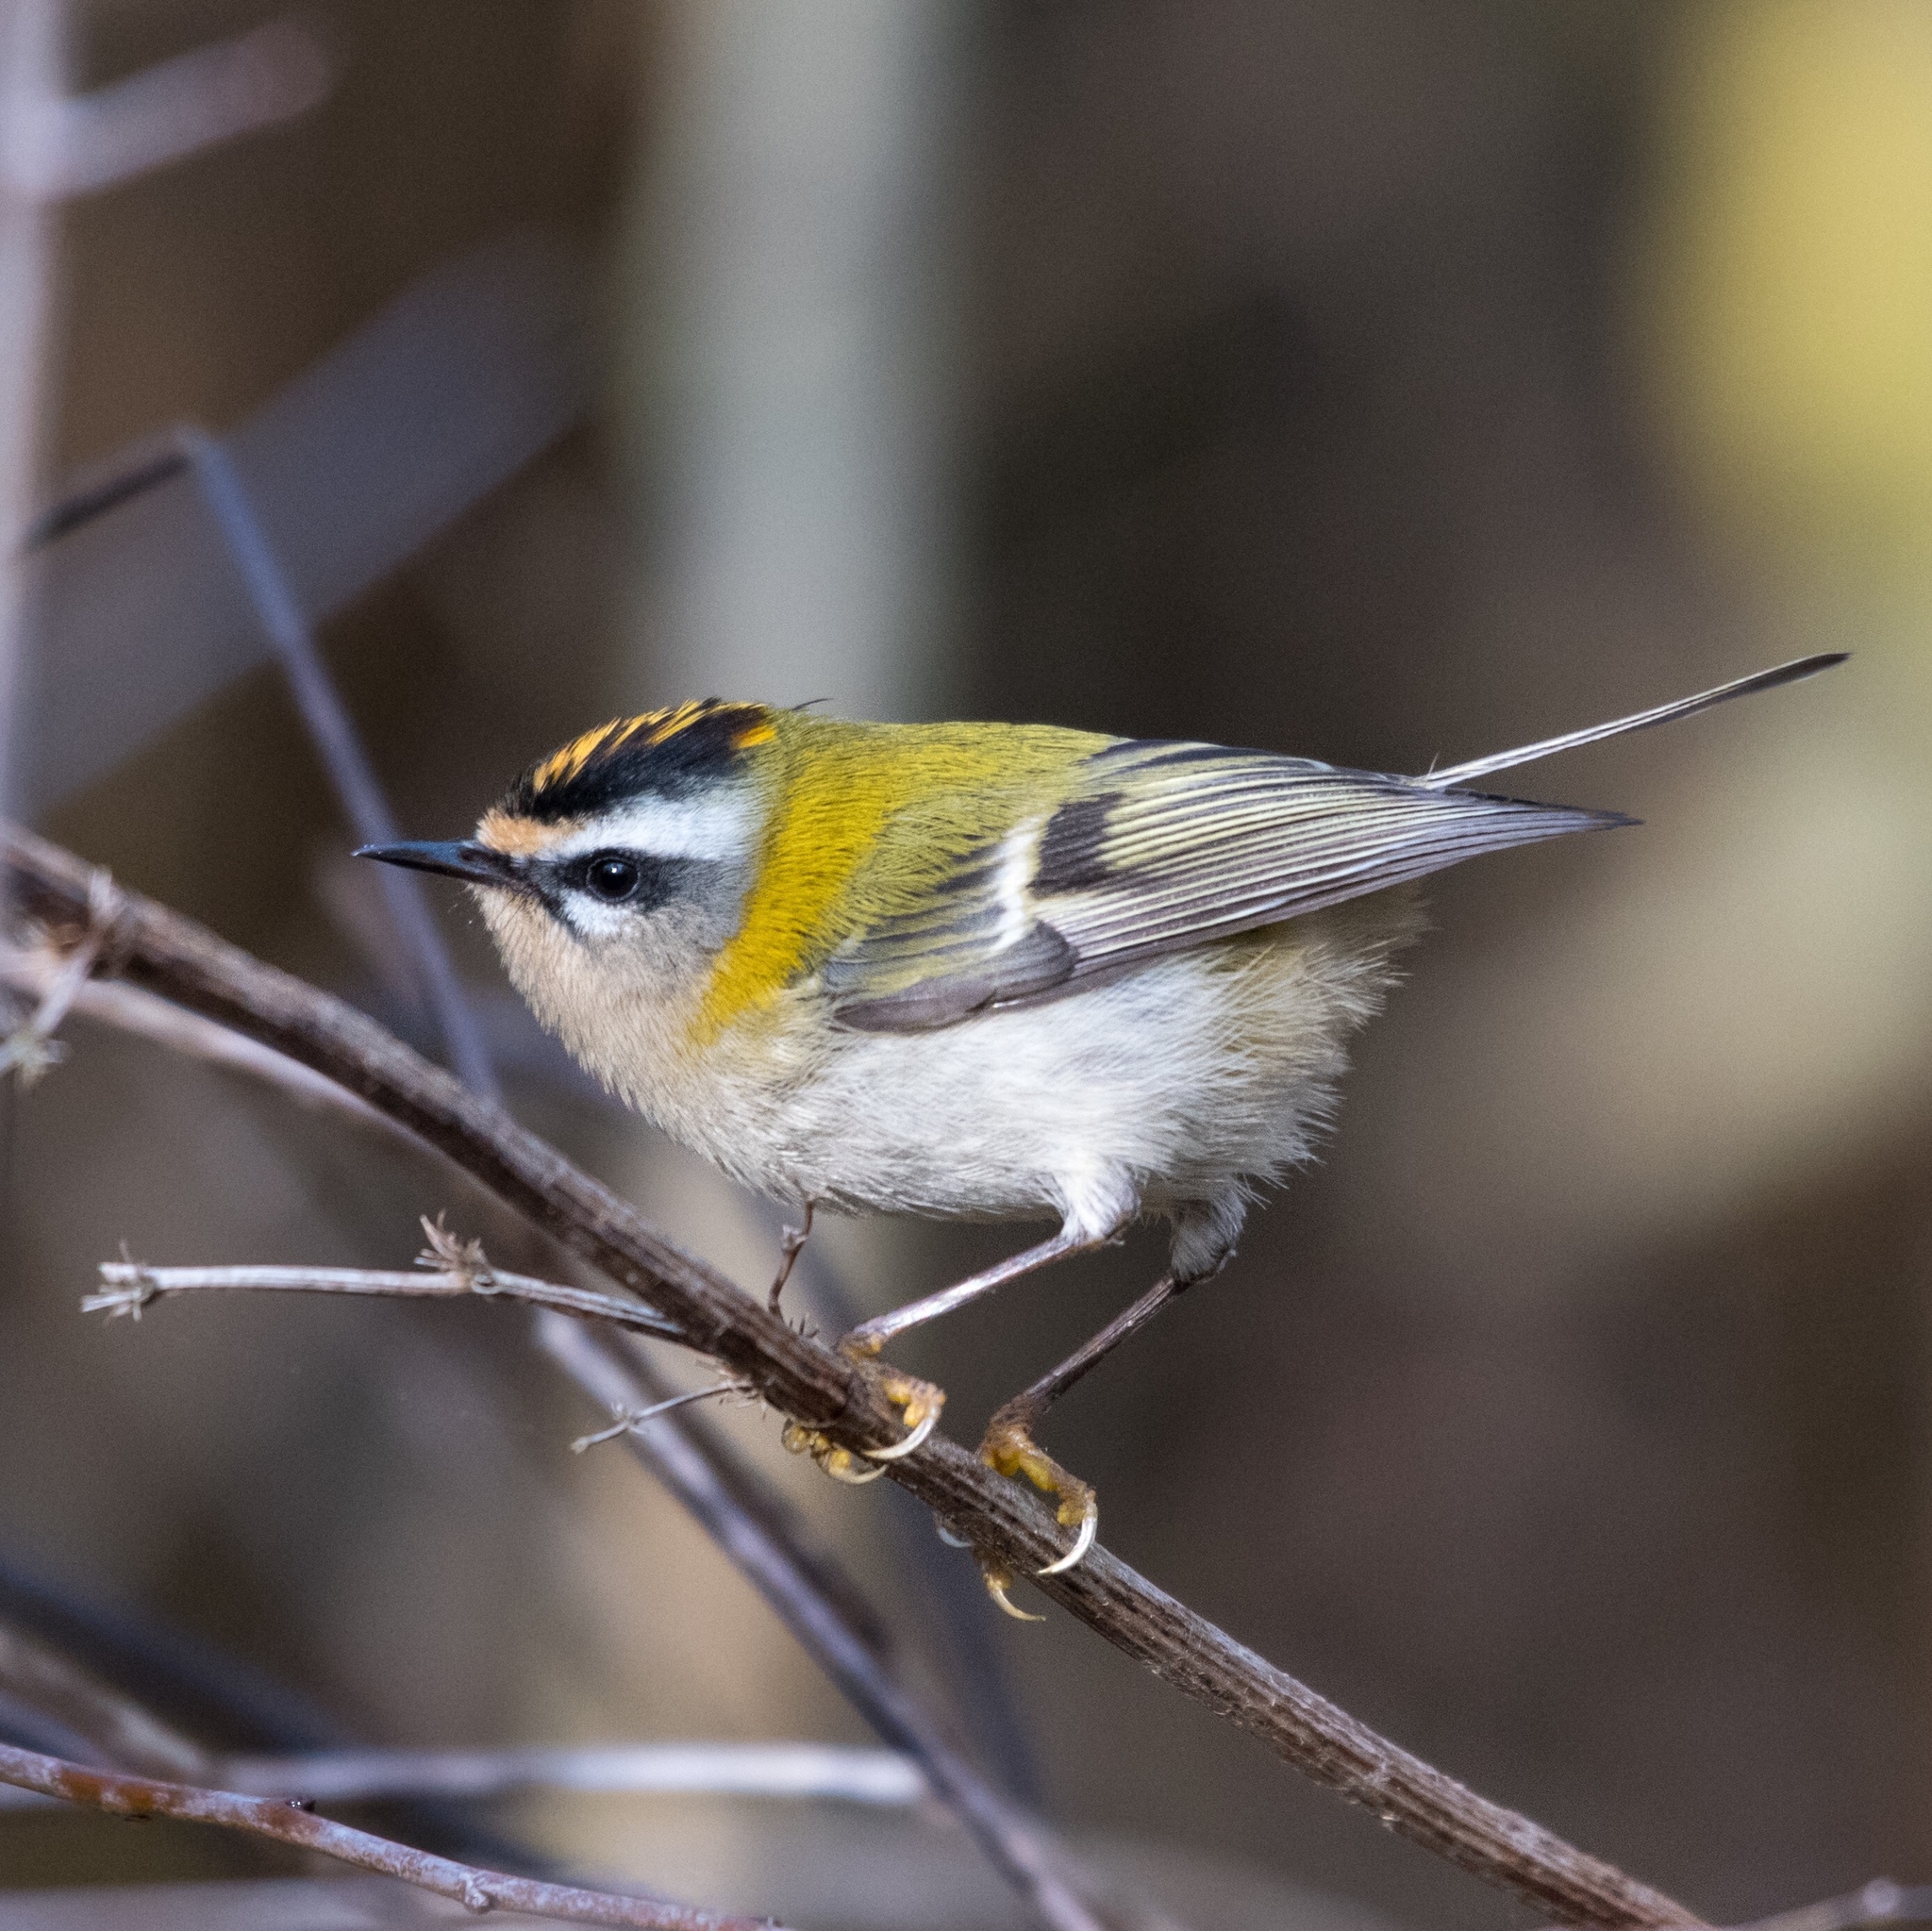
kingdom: Animalia
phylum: Chordata
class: Aves
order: Passeriformes
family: Regulidae
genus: Regulus
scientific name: Regulus ignicapilla
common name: Firecrest
